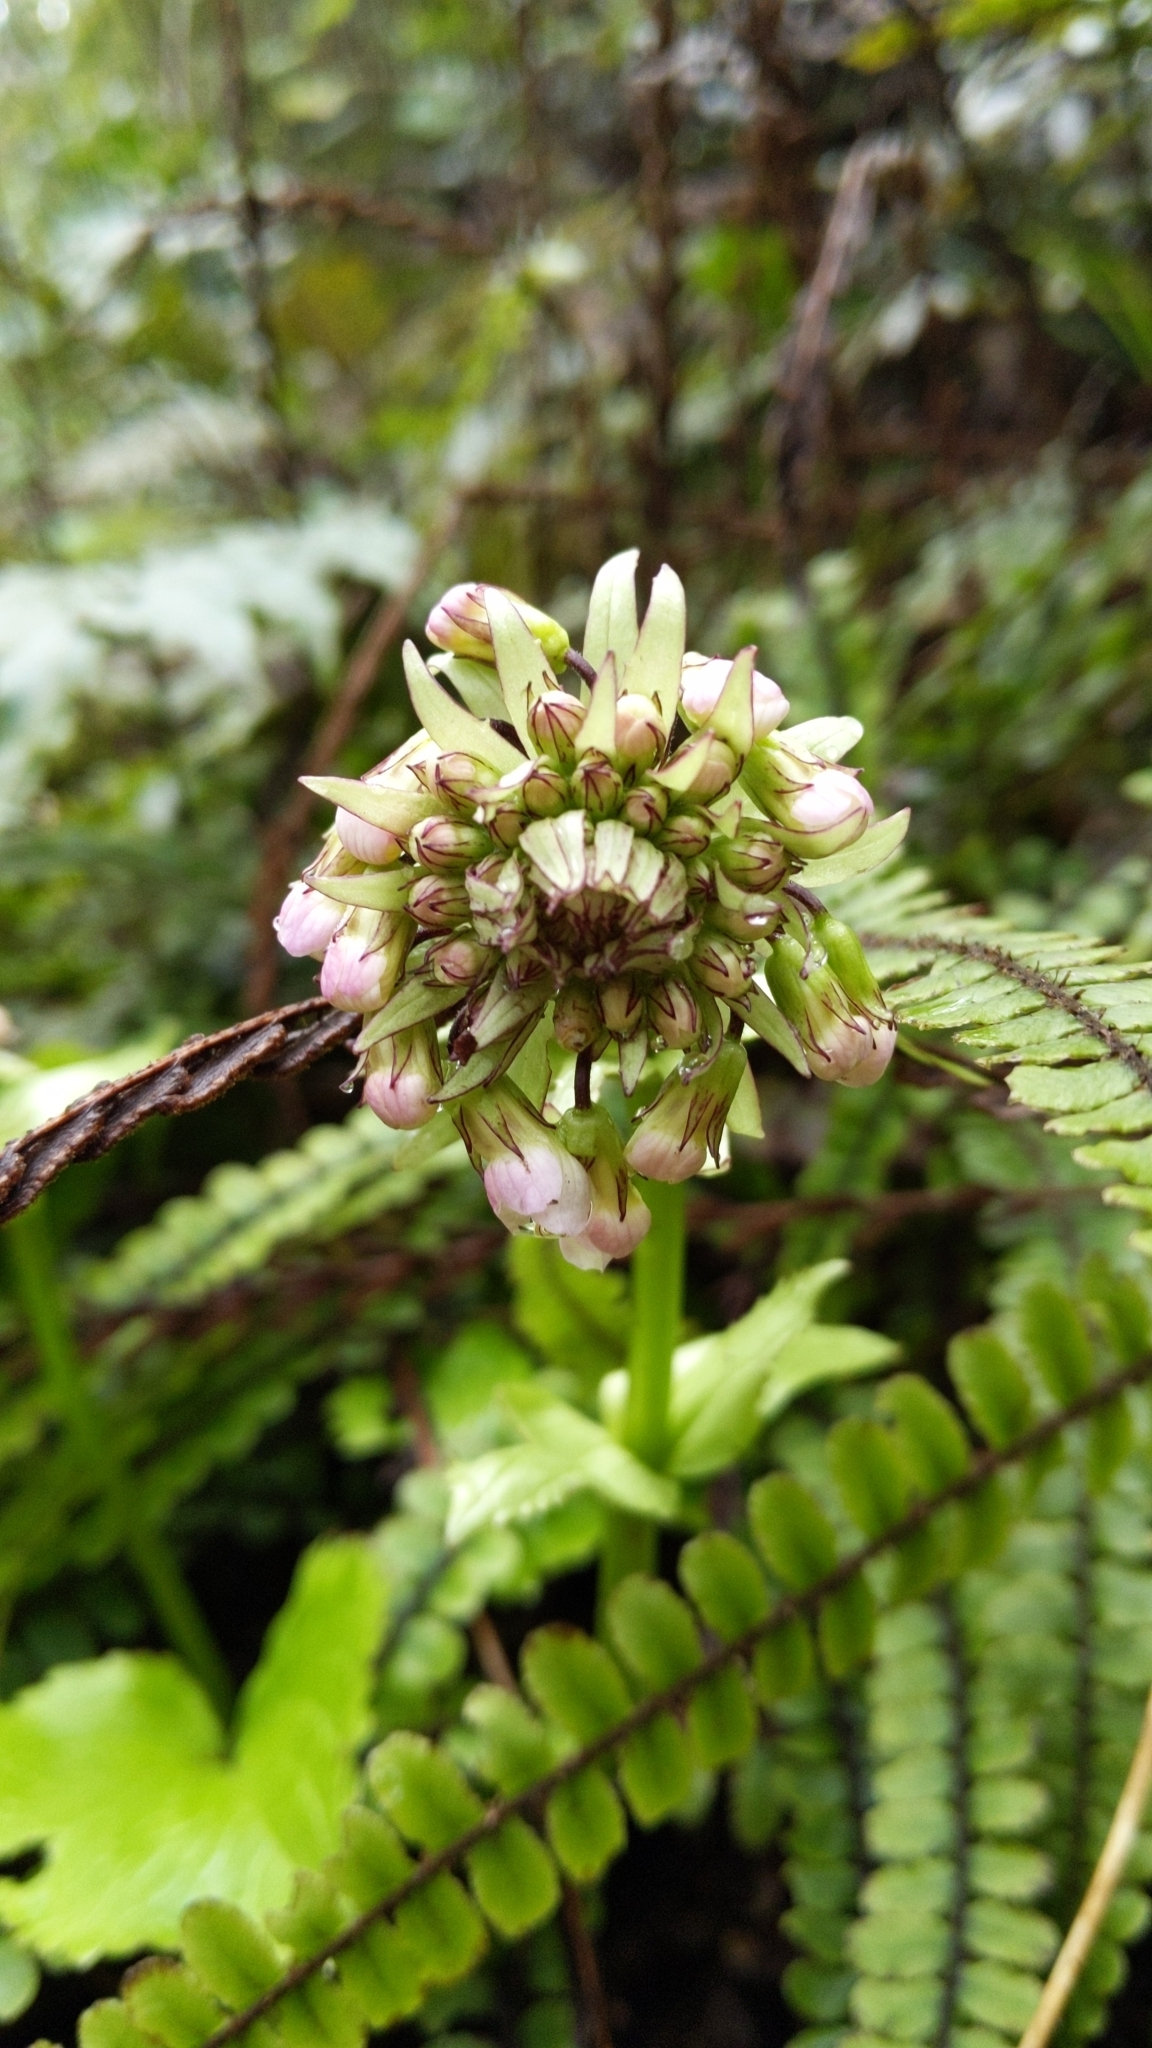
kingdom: Plantae
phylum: Tracheophyta
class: Magnoliopsida
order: Lamiales
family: Plantaginaceae
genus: Ourisia
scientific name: Ourisia macrophylla
